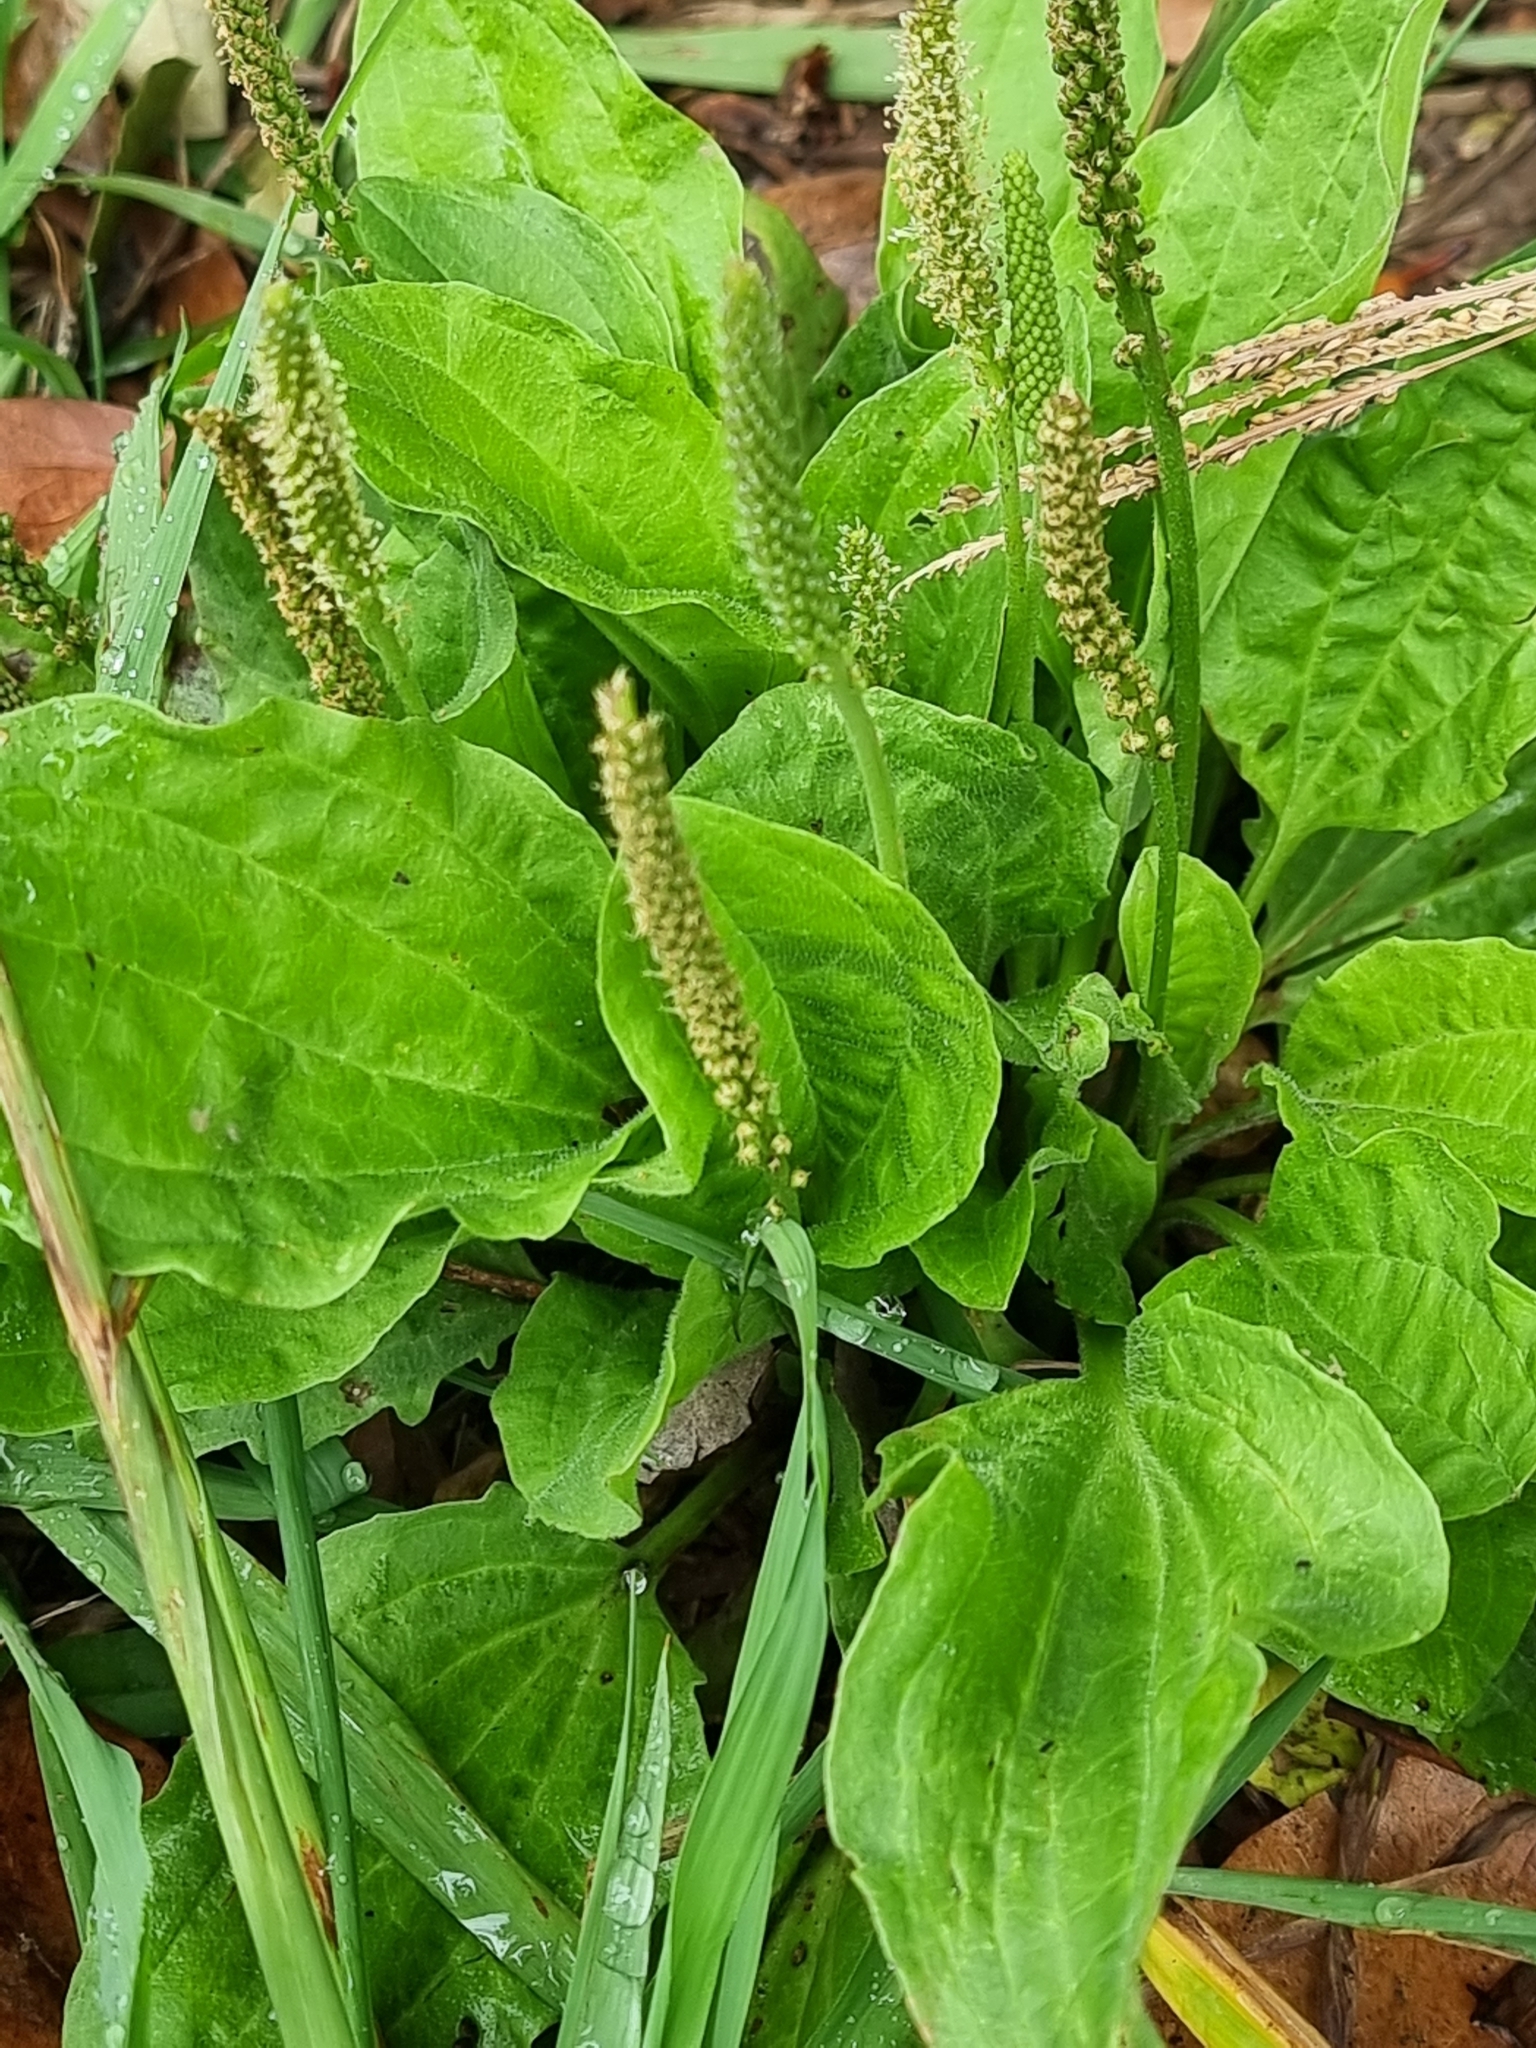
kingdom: Plantae
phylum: Tracheophyta
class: Magnoliopsida
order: Lamiales
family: Plantaginaceae
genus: Plantago
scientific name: Plantago major
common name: Common plantain
